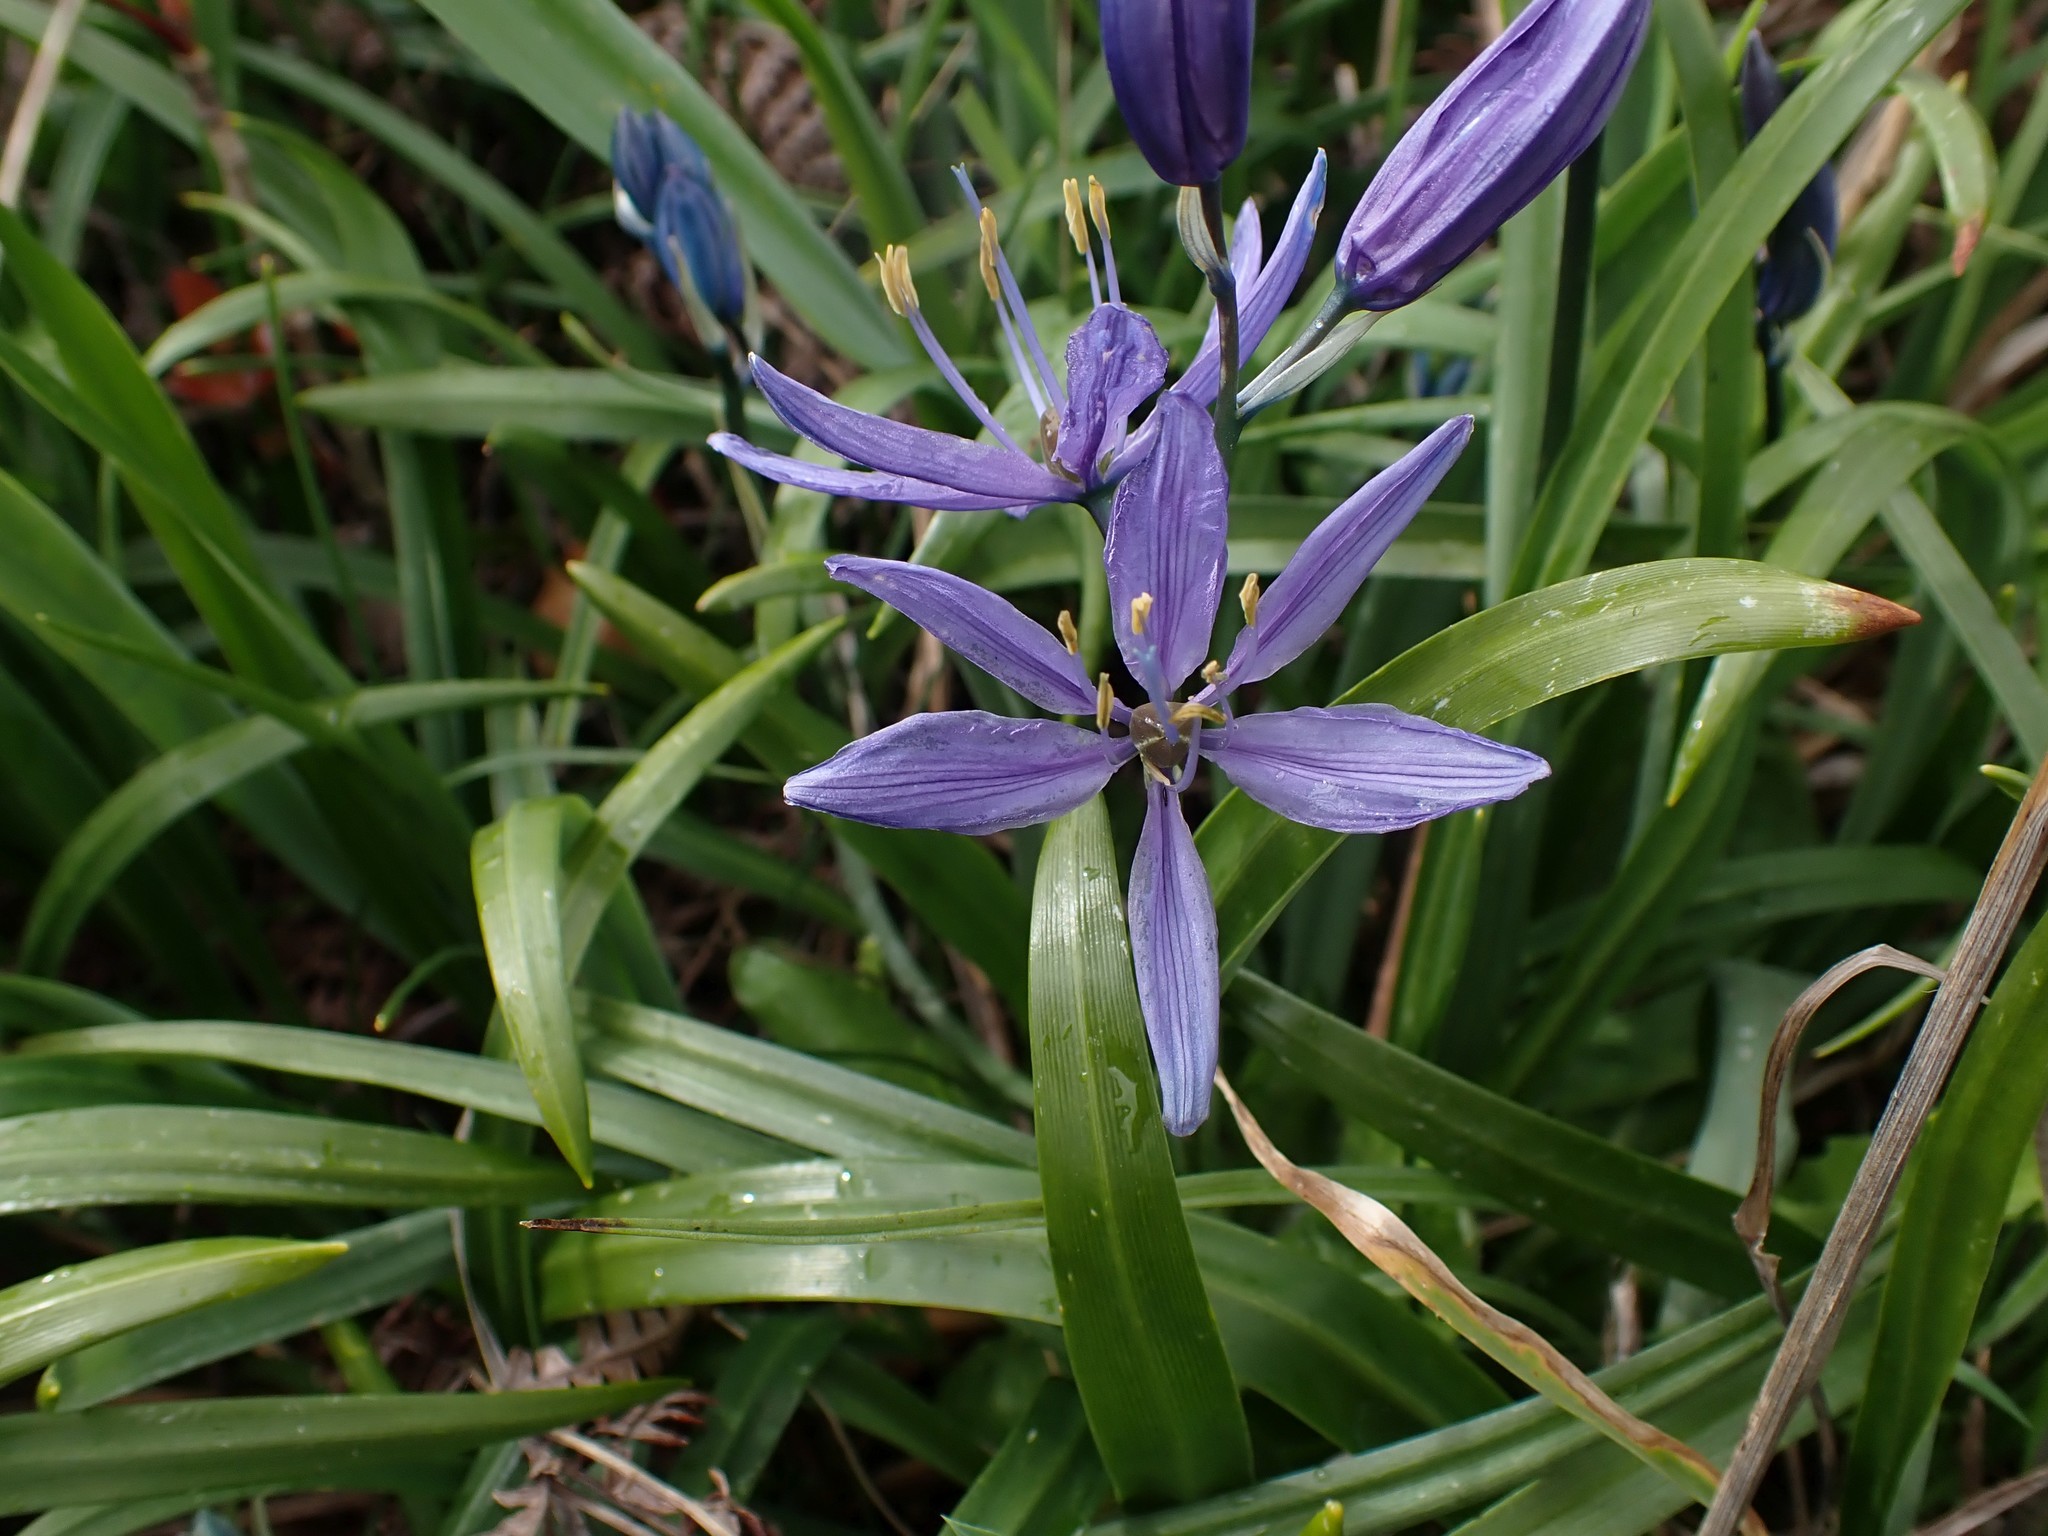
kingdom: Plantae
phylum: Tracheophyta
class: Liliopsida
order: Asparagales
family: Asparagaceae
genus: Camassia
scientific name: Camassia quamash
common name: Common camas
